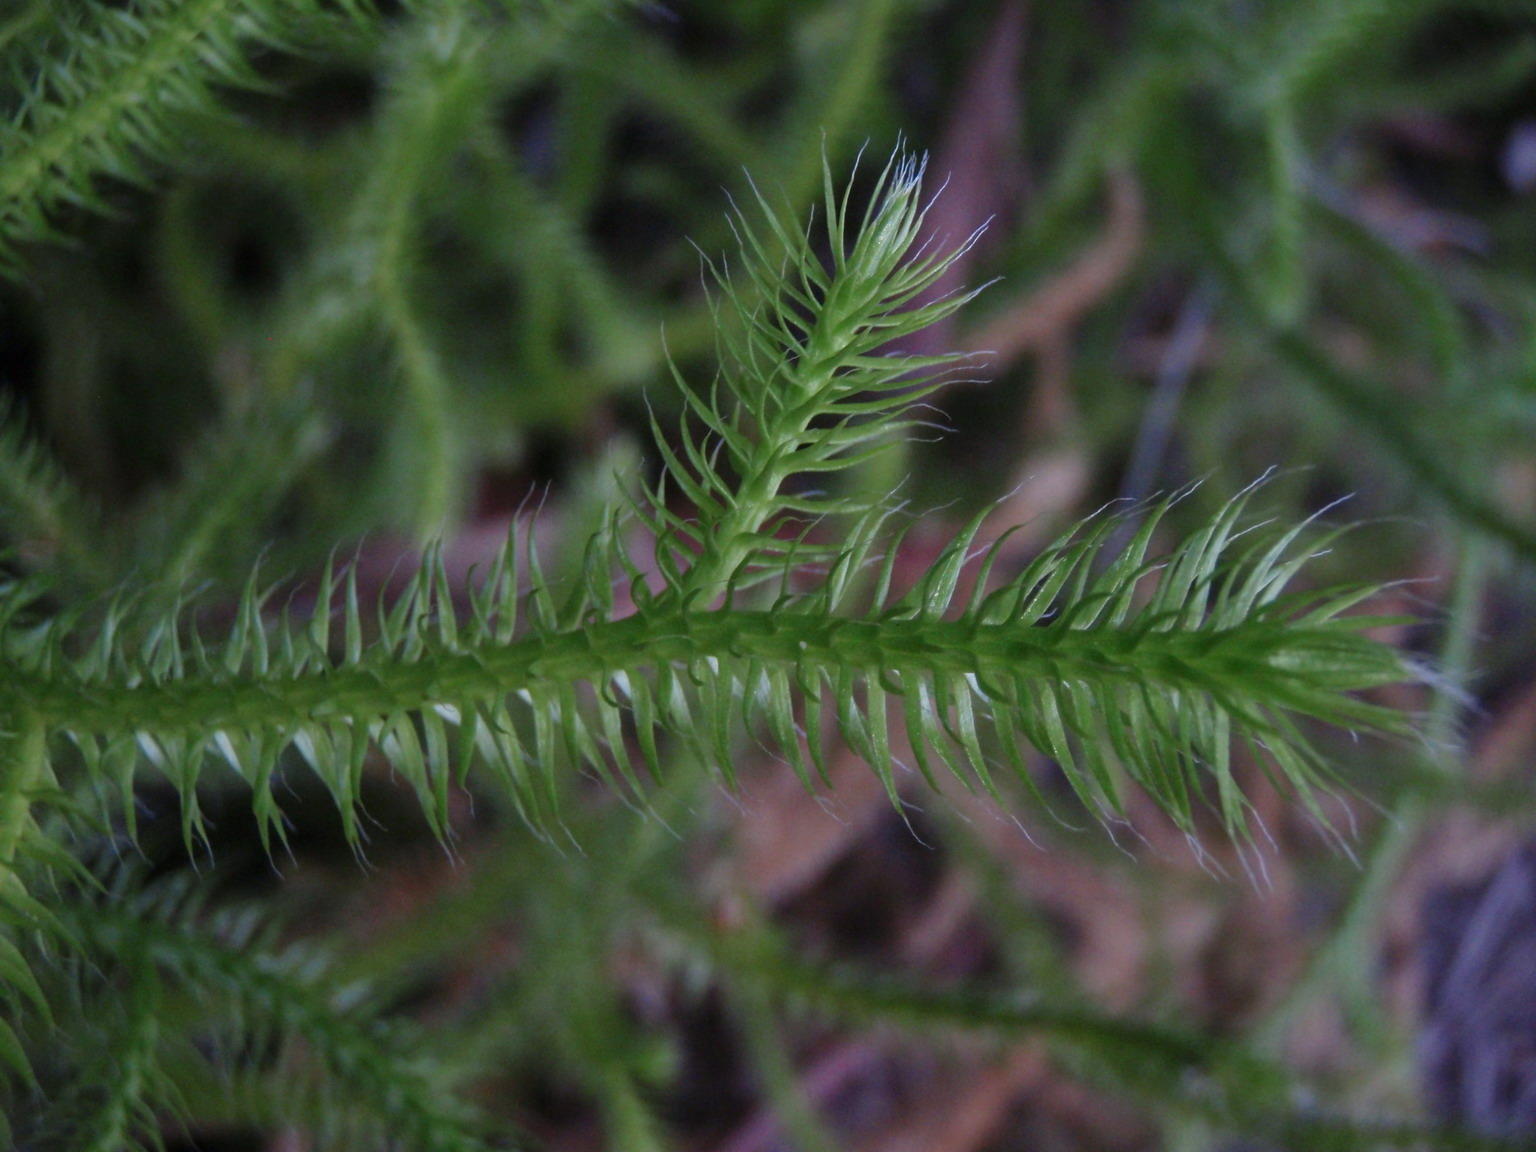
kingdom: Plantae
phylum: Tracheophyta
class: Lycopodiopsida
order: Lycopodiales
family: Lycopodiaceae
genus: Lycopodium
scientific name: Lycopodium clavatum
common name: Stag's-horn clubmoss
